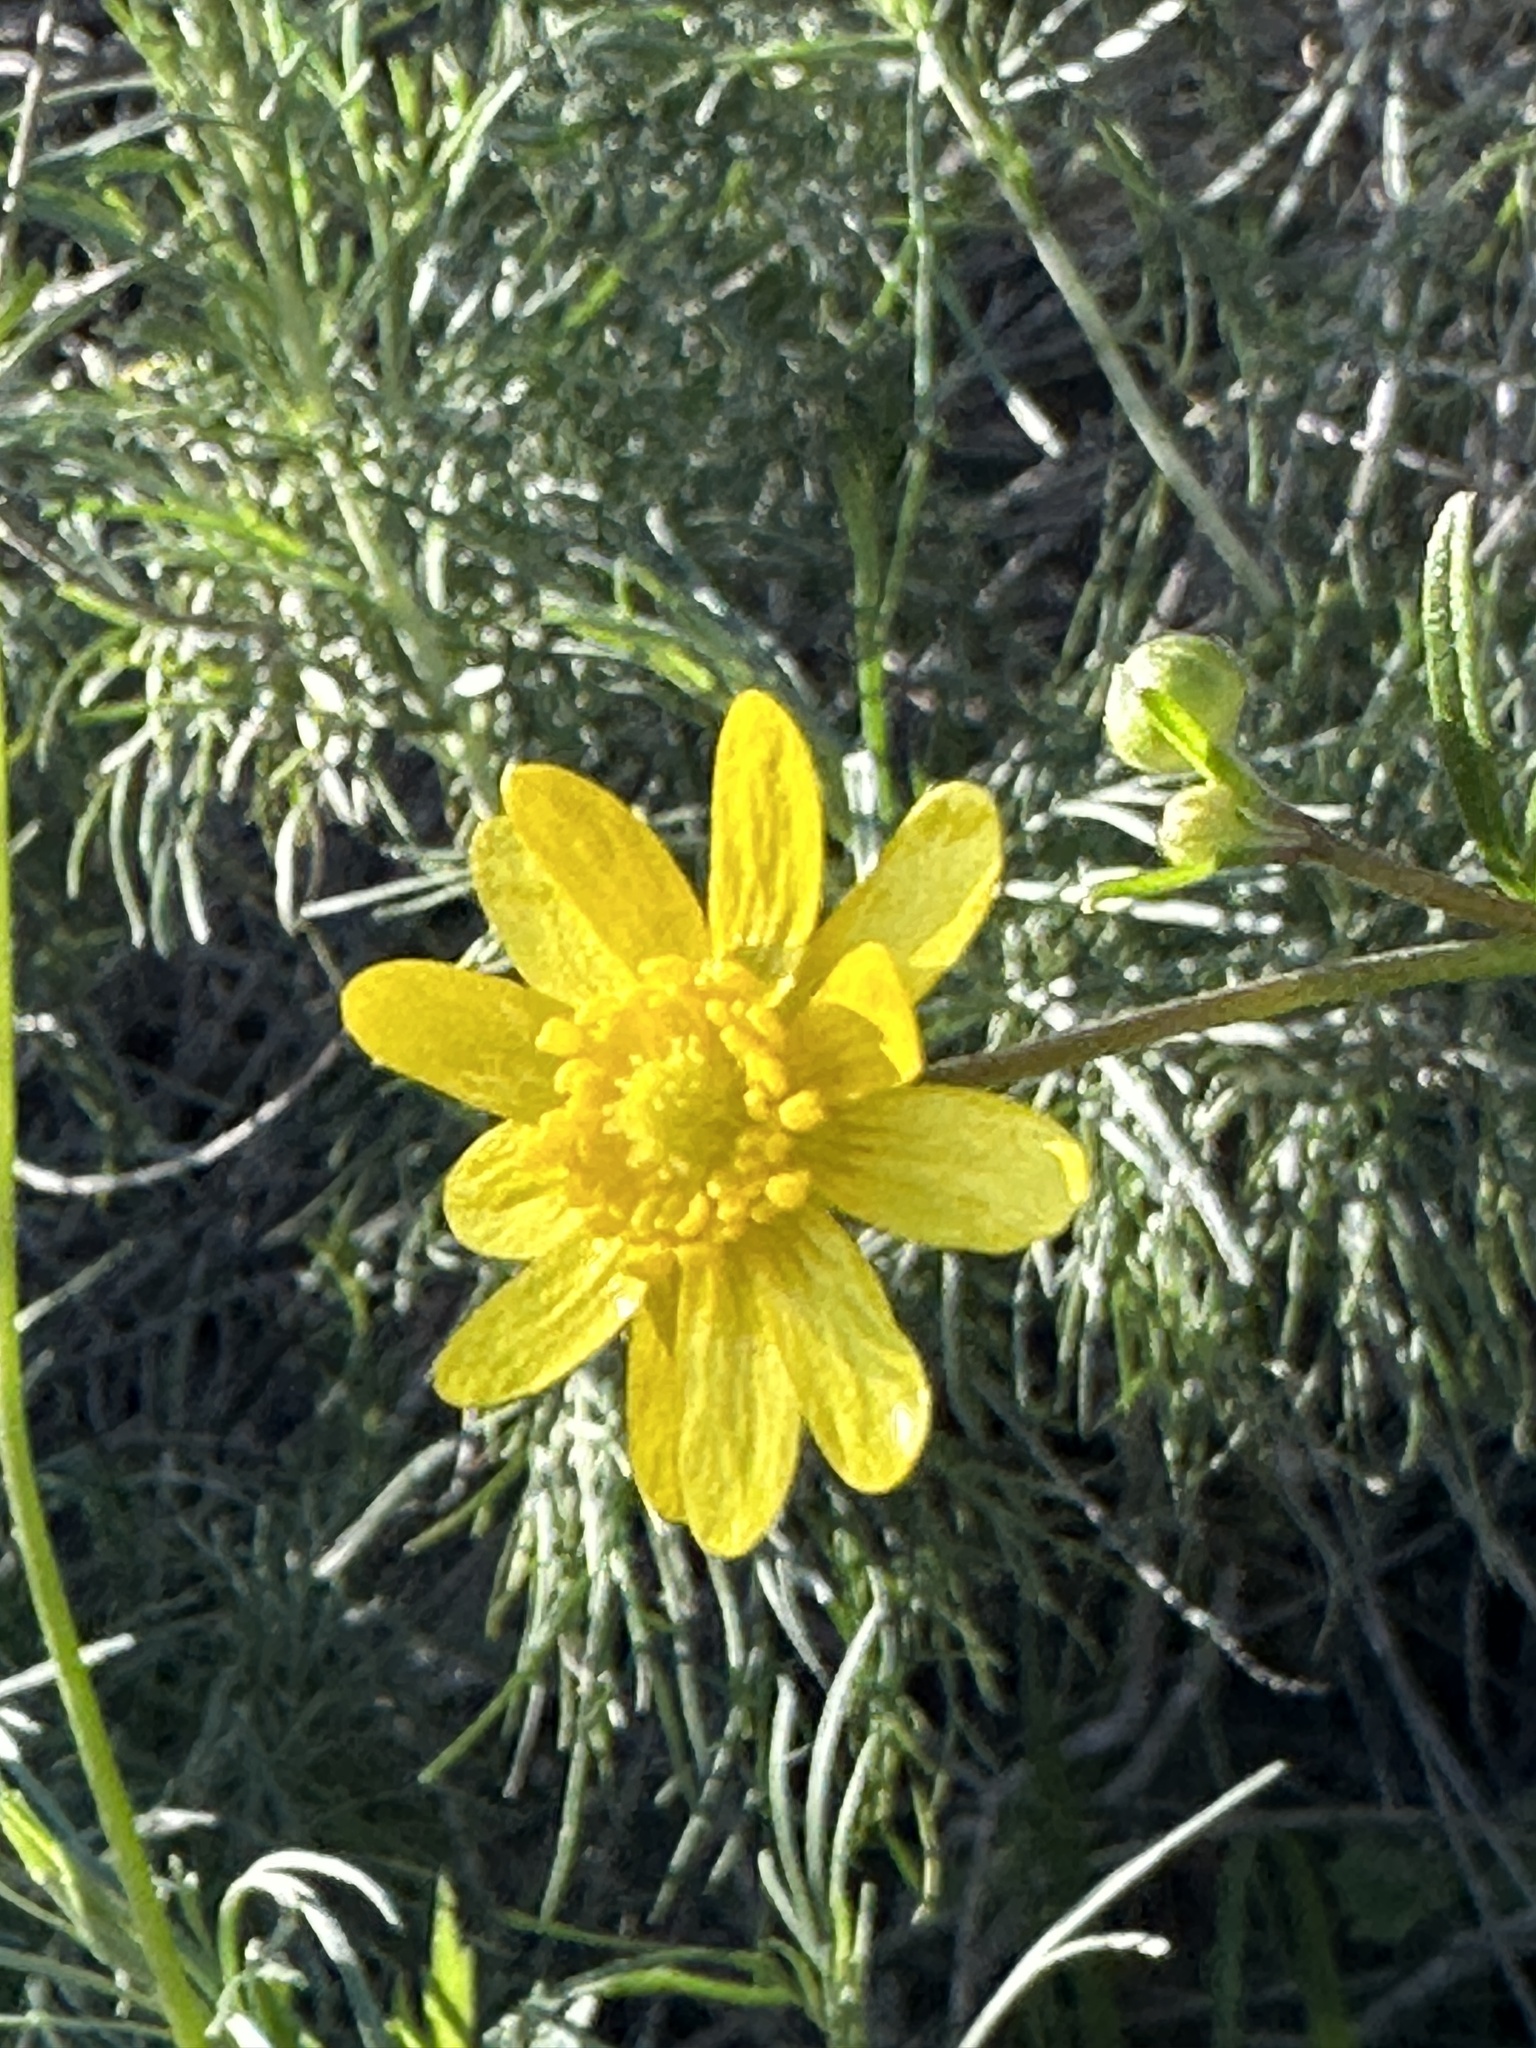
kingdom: Plantae
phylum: Tracheophyta
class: Magnoliopsida
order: Ranunculales
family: Ranunculaceae
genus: Ranunculus
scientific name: Ranunculus californicus
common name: California buttercup
